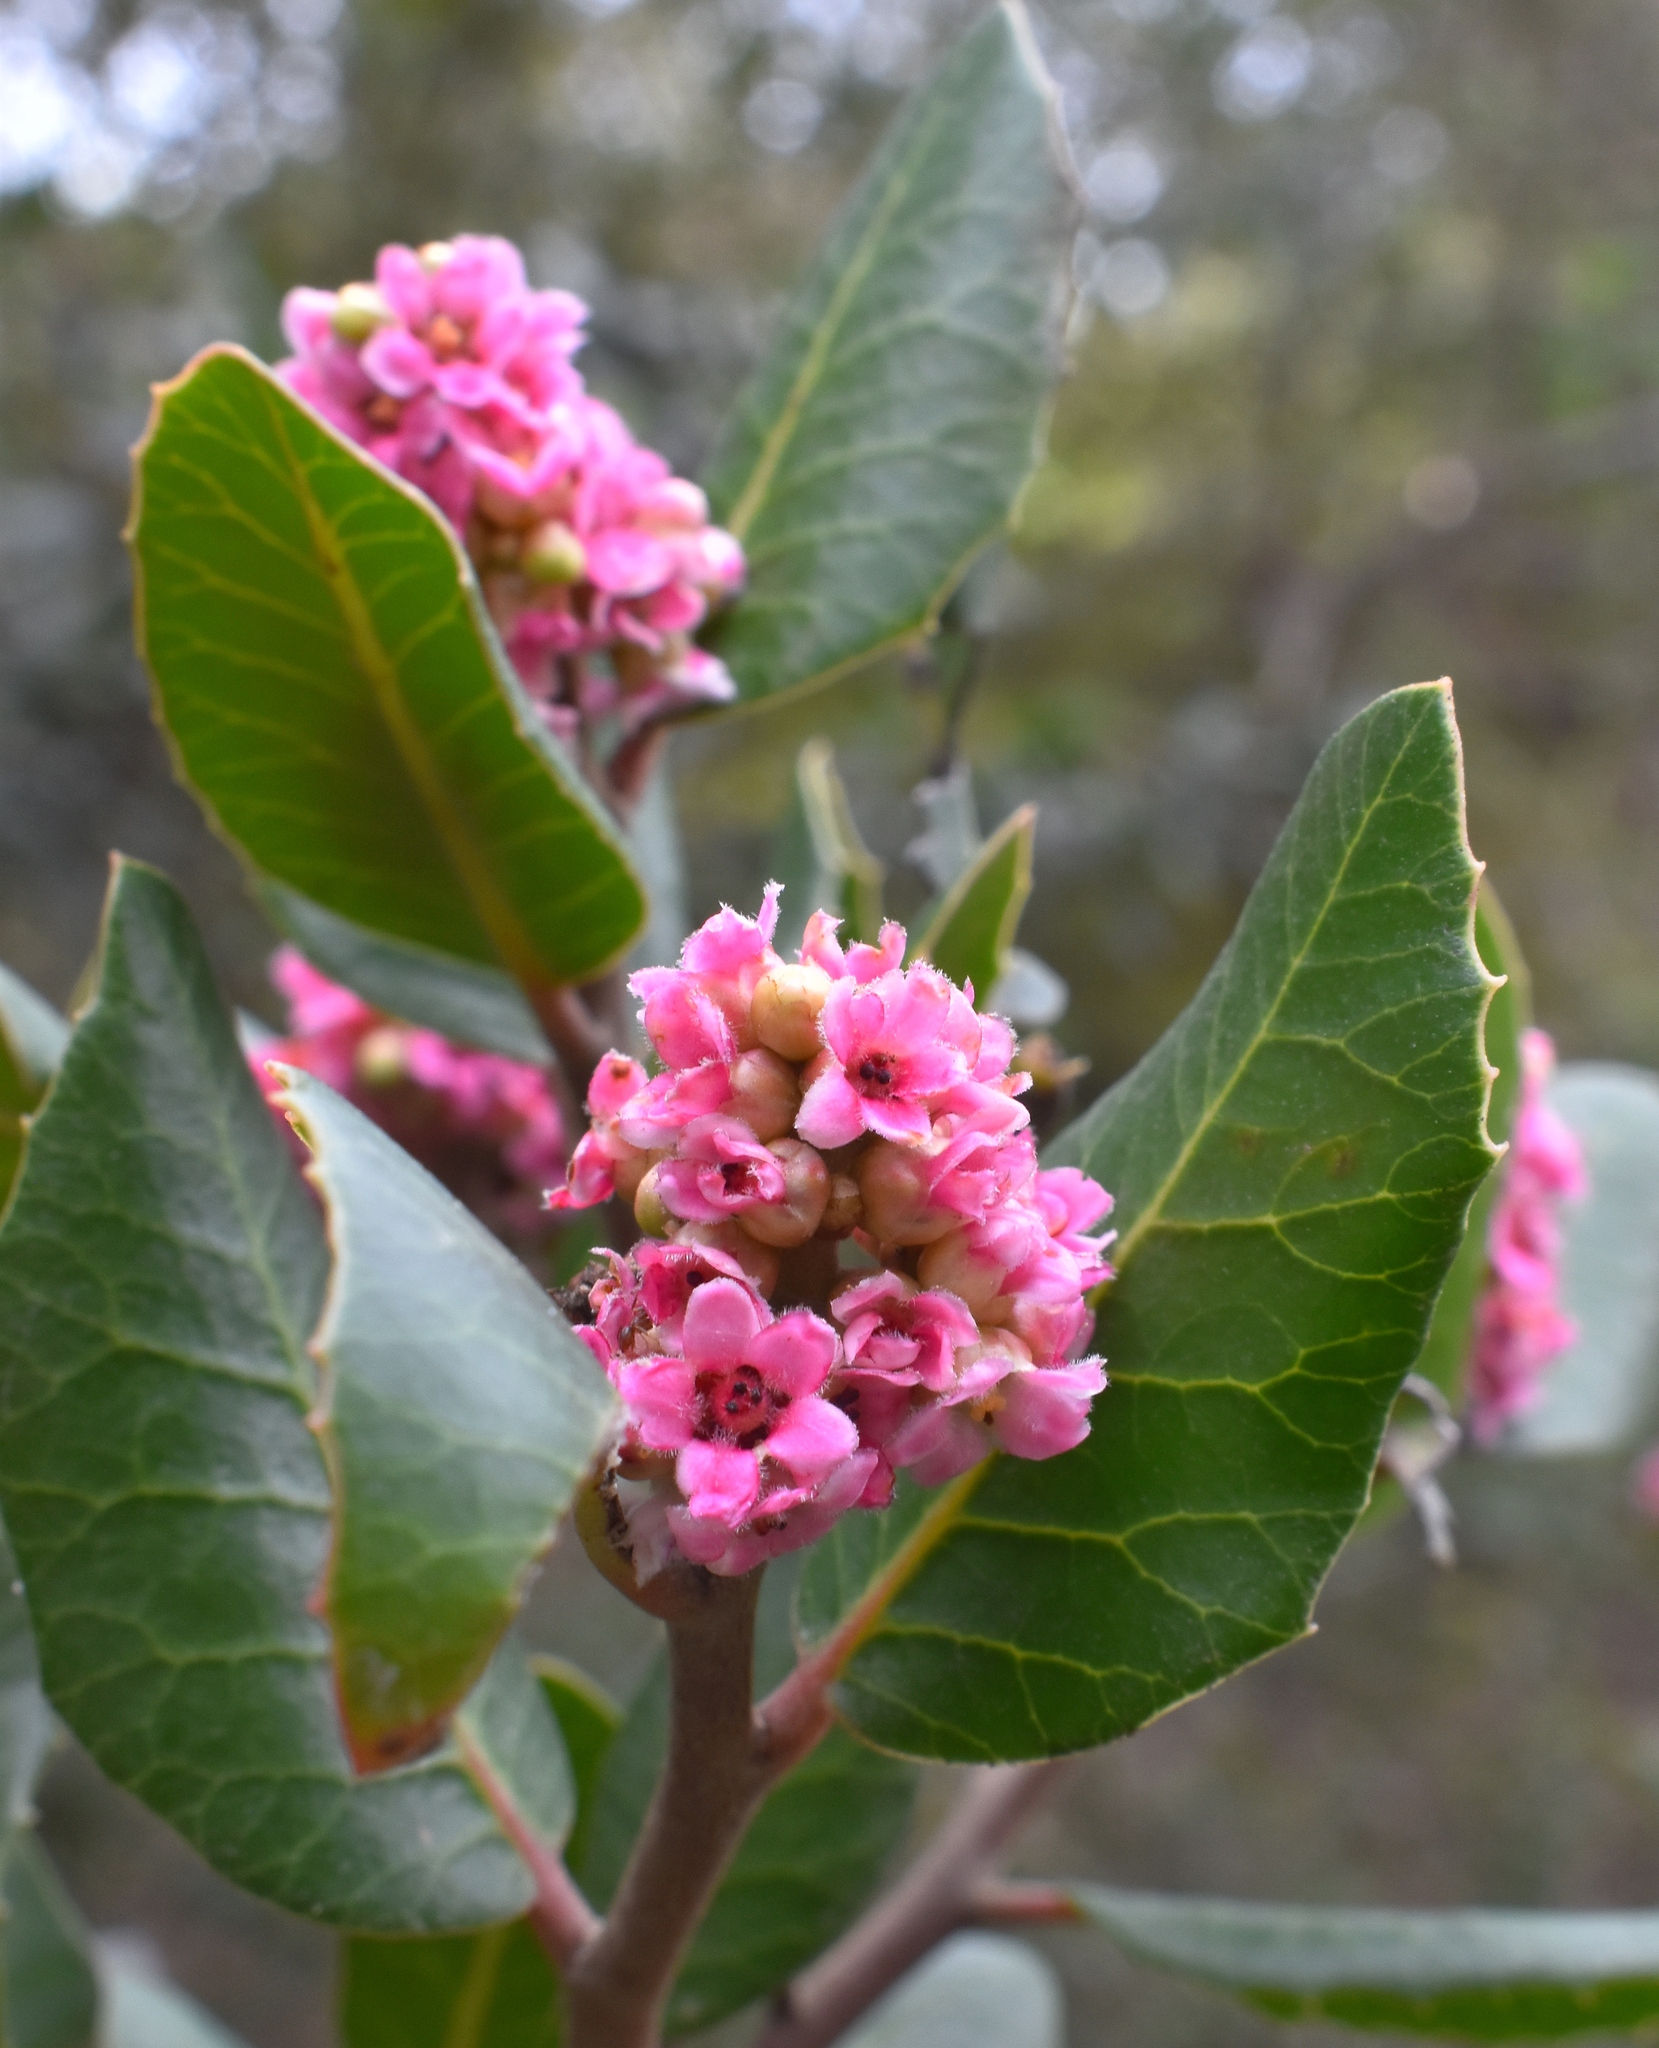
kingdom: Plantae
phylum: Tracheophyta
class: Magnoliopsida
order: Sapindales
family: Anacardiaceae
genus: Rhus
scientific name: Rhus integrifolia
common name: Lemonade sumac
